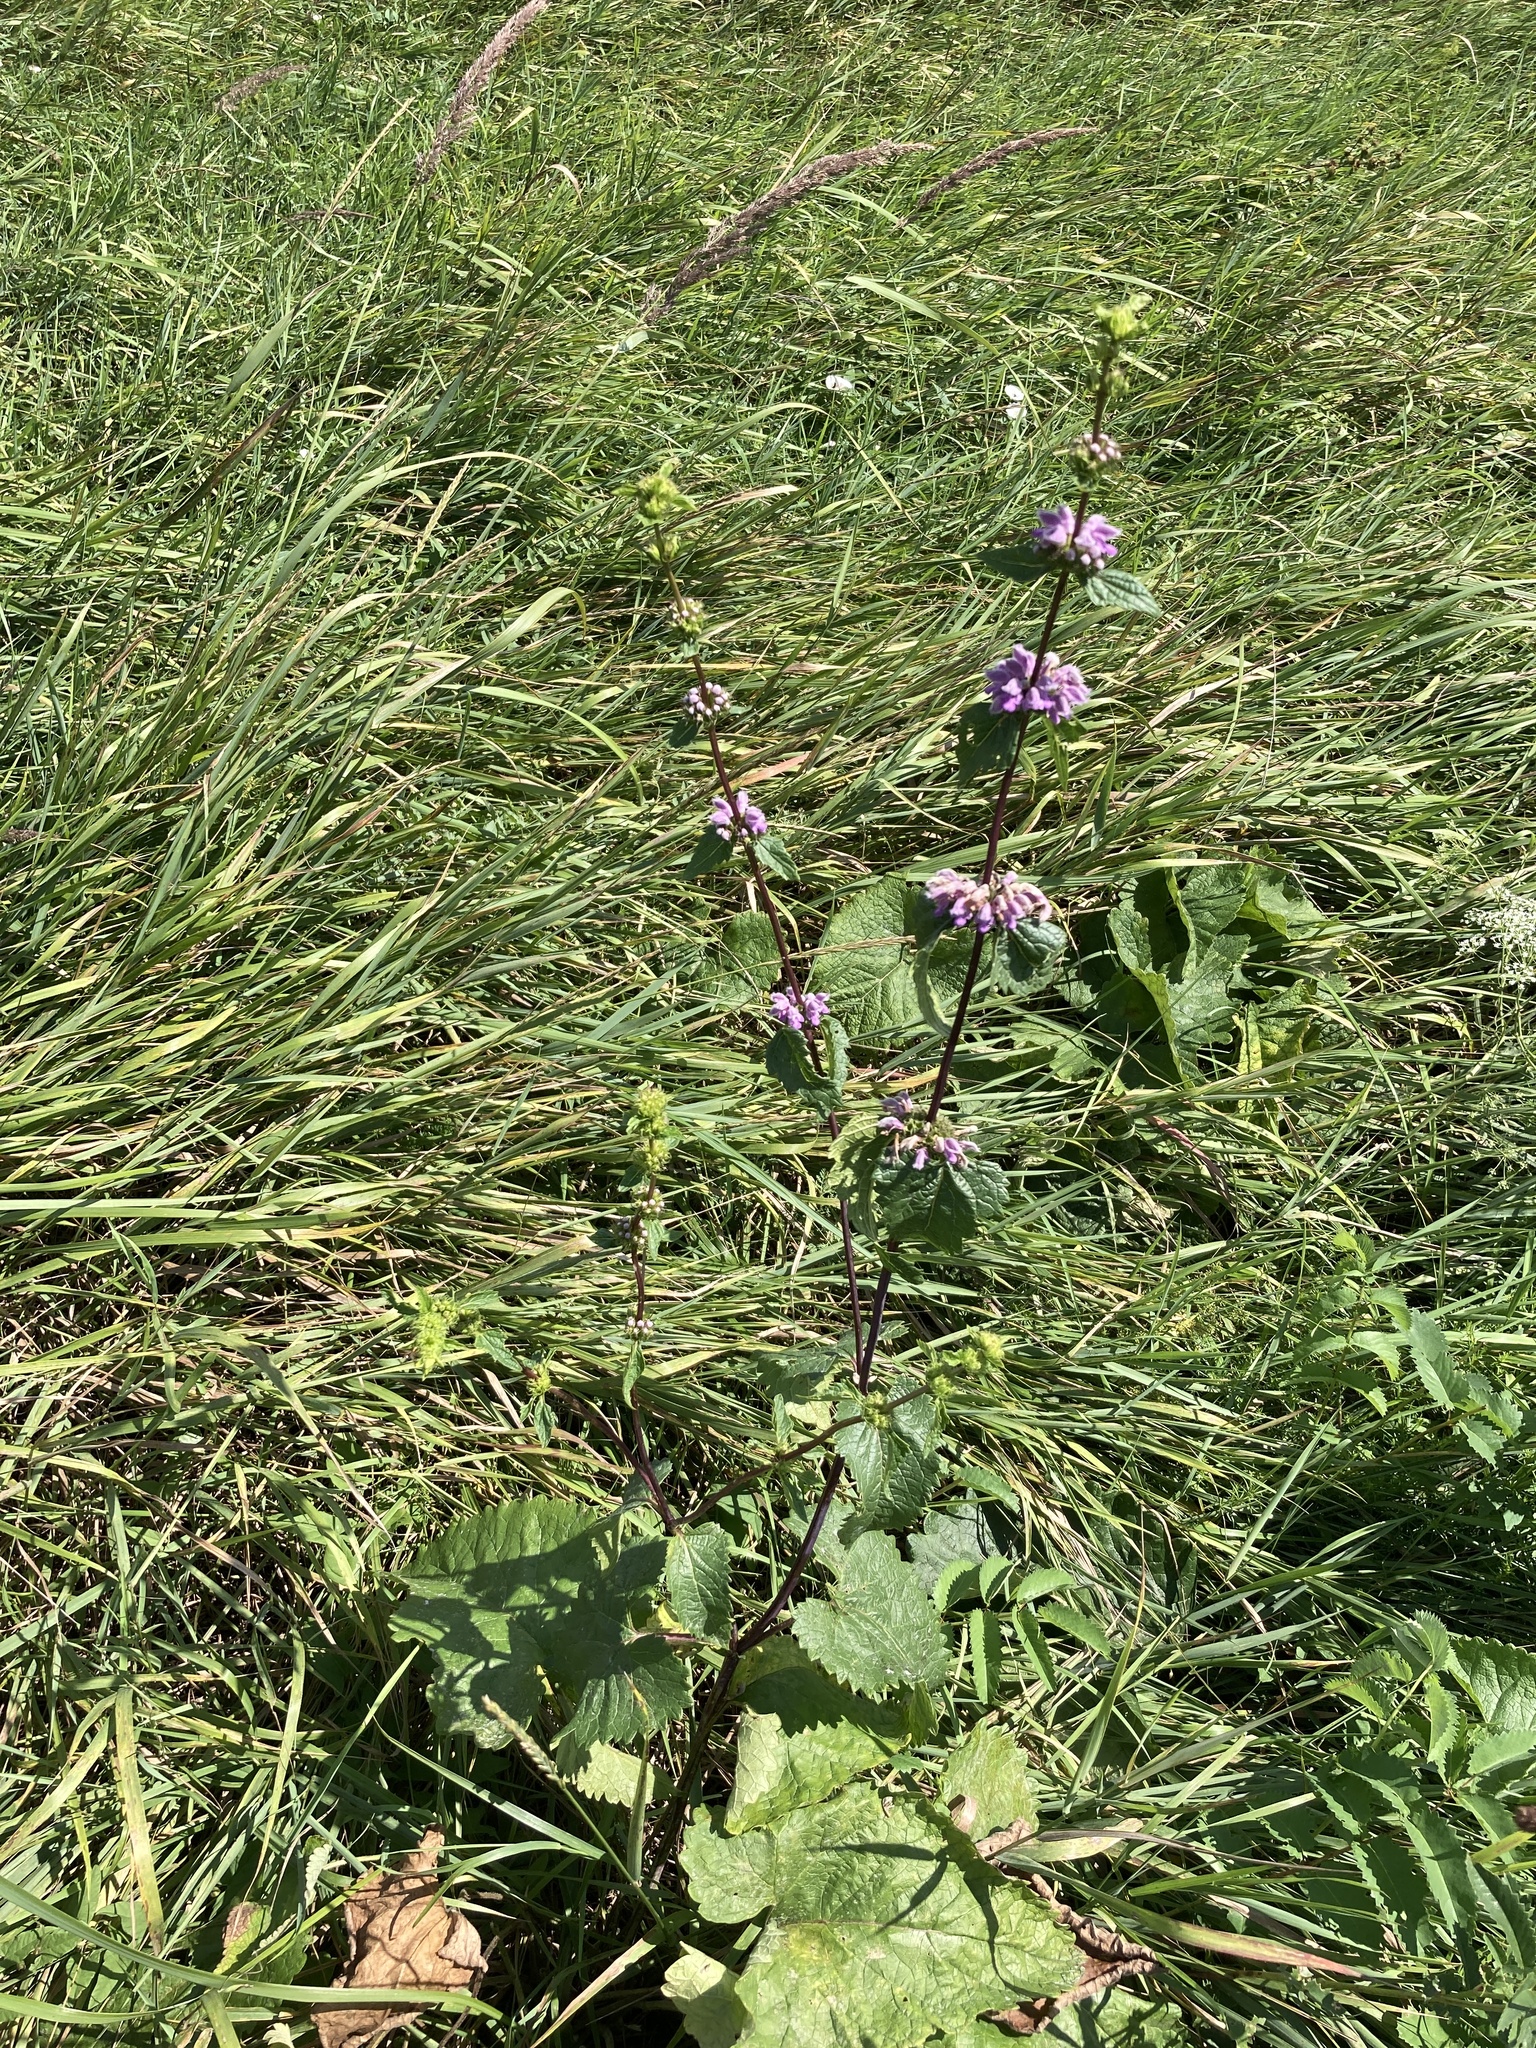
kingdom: Plantae
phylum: Tracheophyta
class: Magnoliopsida
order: Lamiales
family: Lamiaceae
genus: Phlomoides
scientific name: Phlomoides tuberosa
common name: Tuberous jerusalem sage
